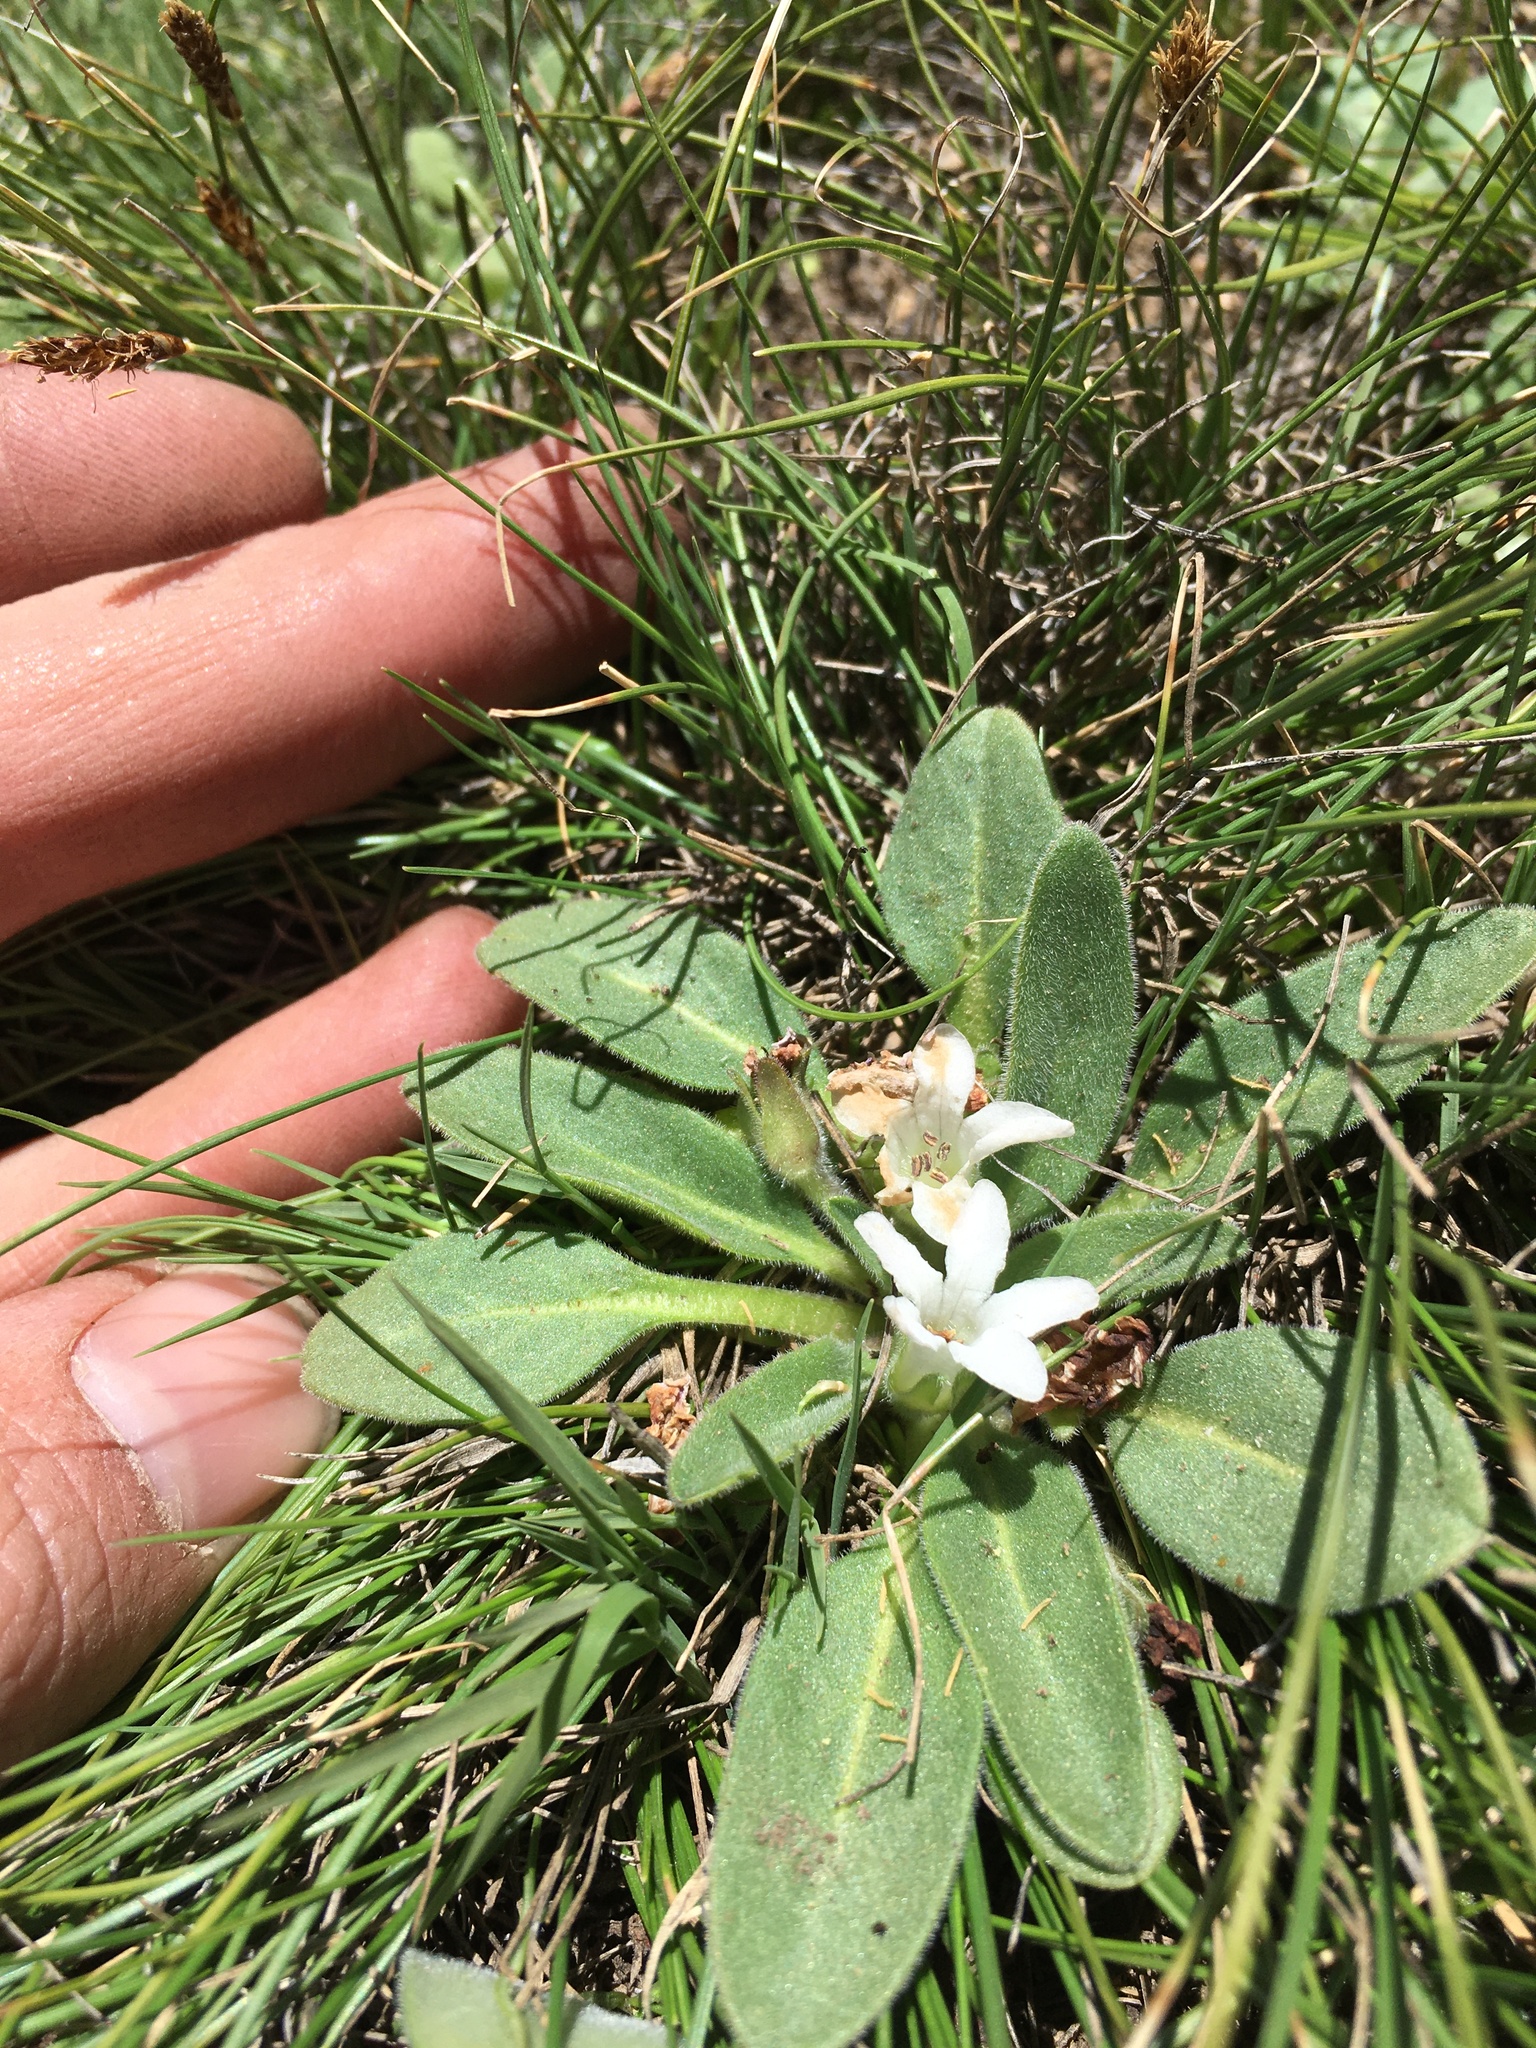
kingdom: Plantae
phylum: Tracheophyta
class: Magnoliopsida
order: Boraginales
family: Hydrophyllaceae
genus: Hesperochiron
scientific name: Hesperochiron californicus
